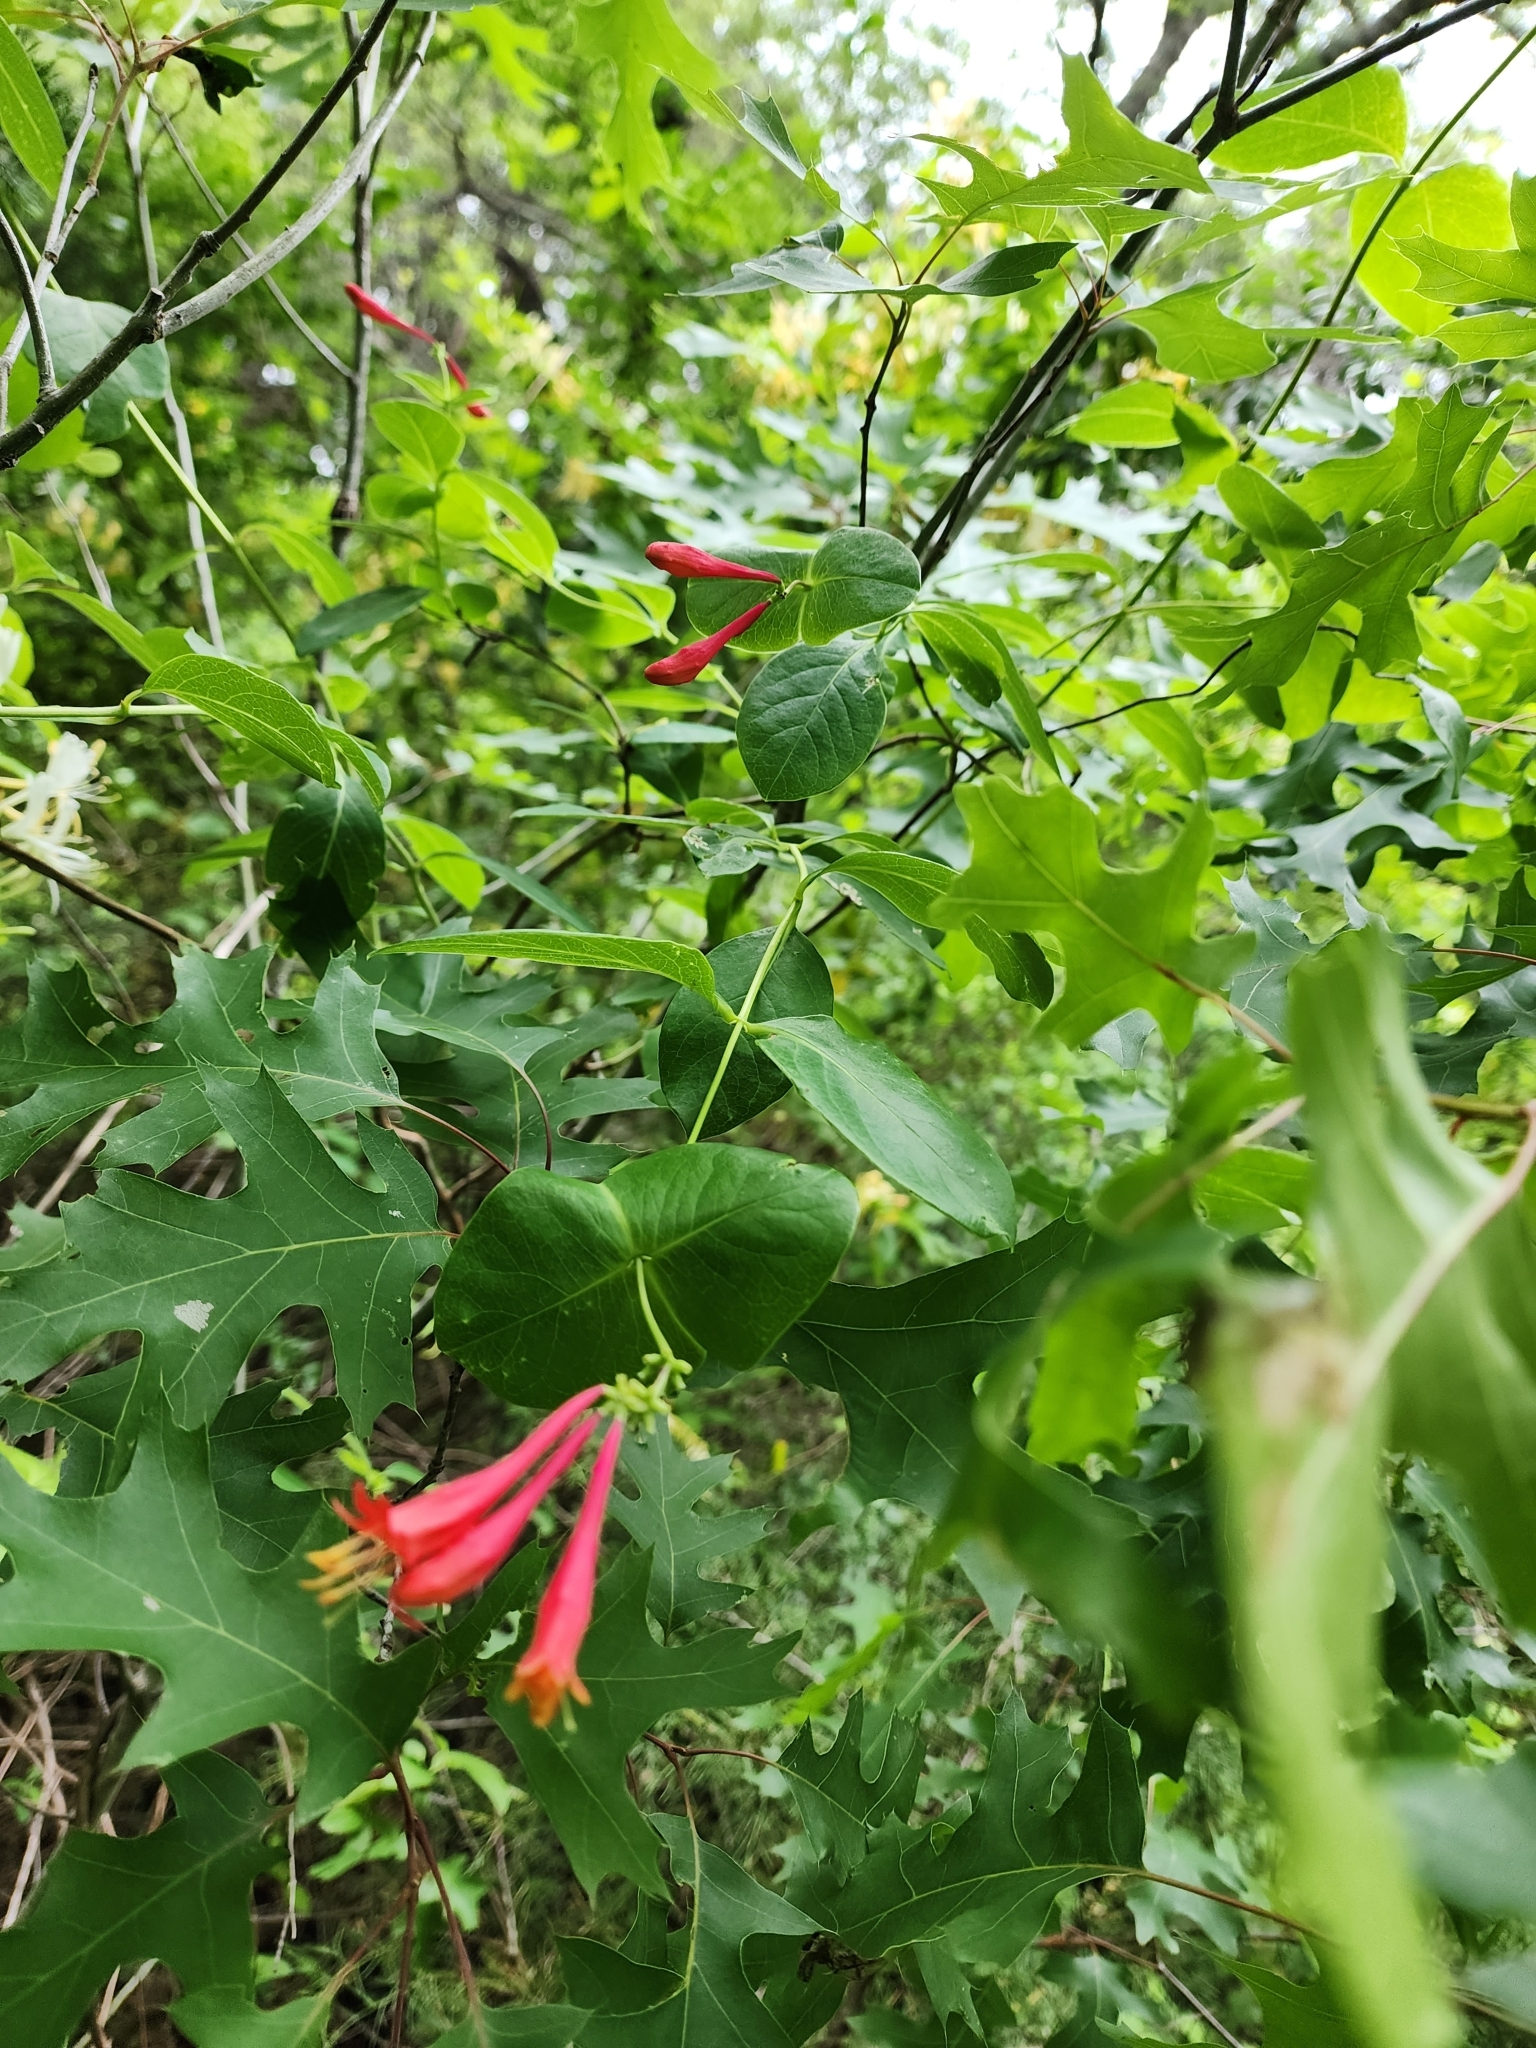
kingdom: Plantae
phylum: Tracheophyta
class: Magnoliopsida
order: Dipsacales
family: Caprifoliaceae
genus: Lonicera
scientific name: Lonicera sempervirens
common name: Coral honeysuckle
